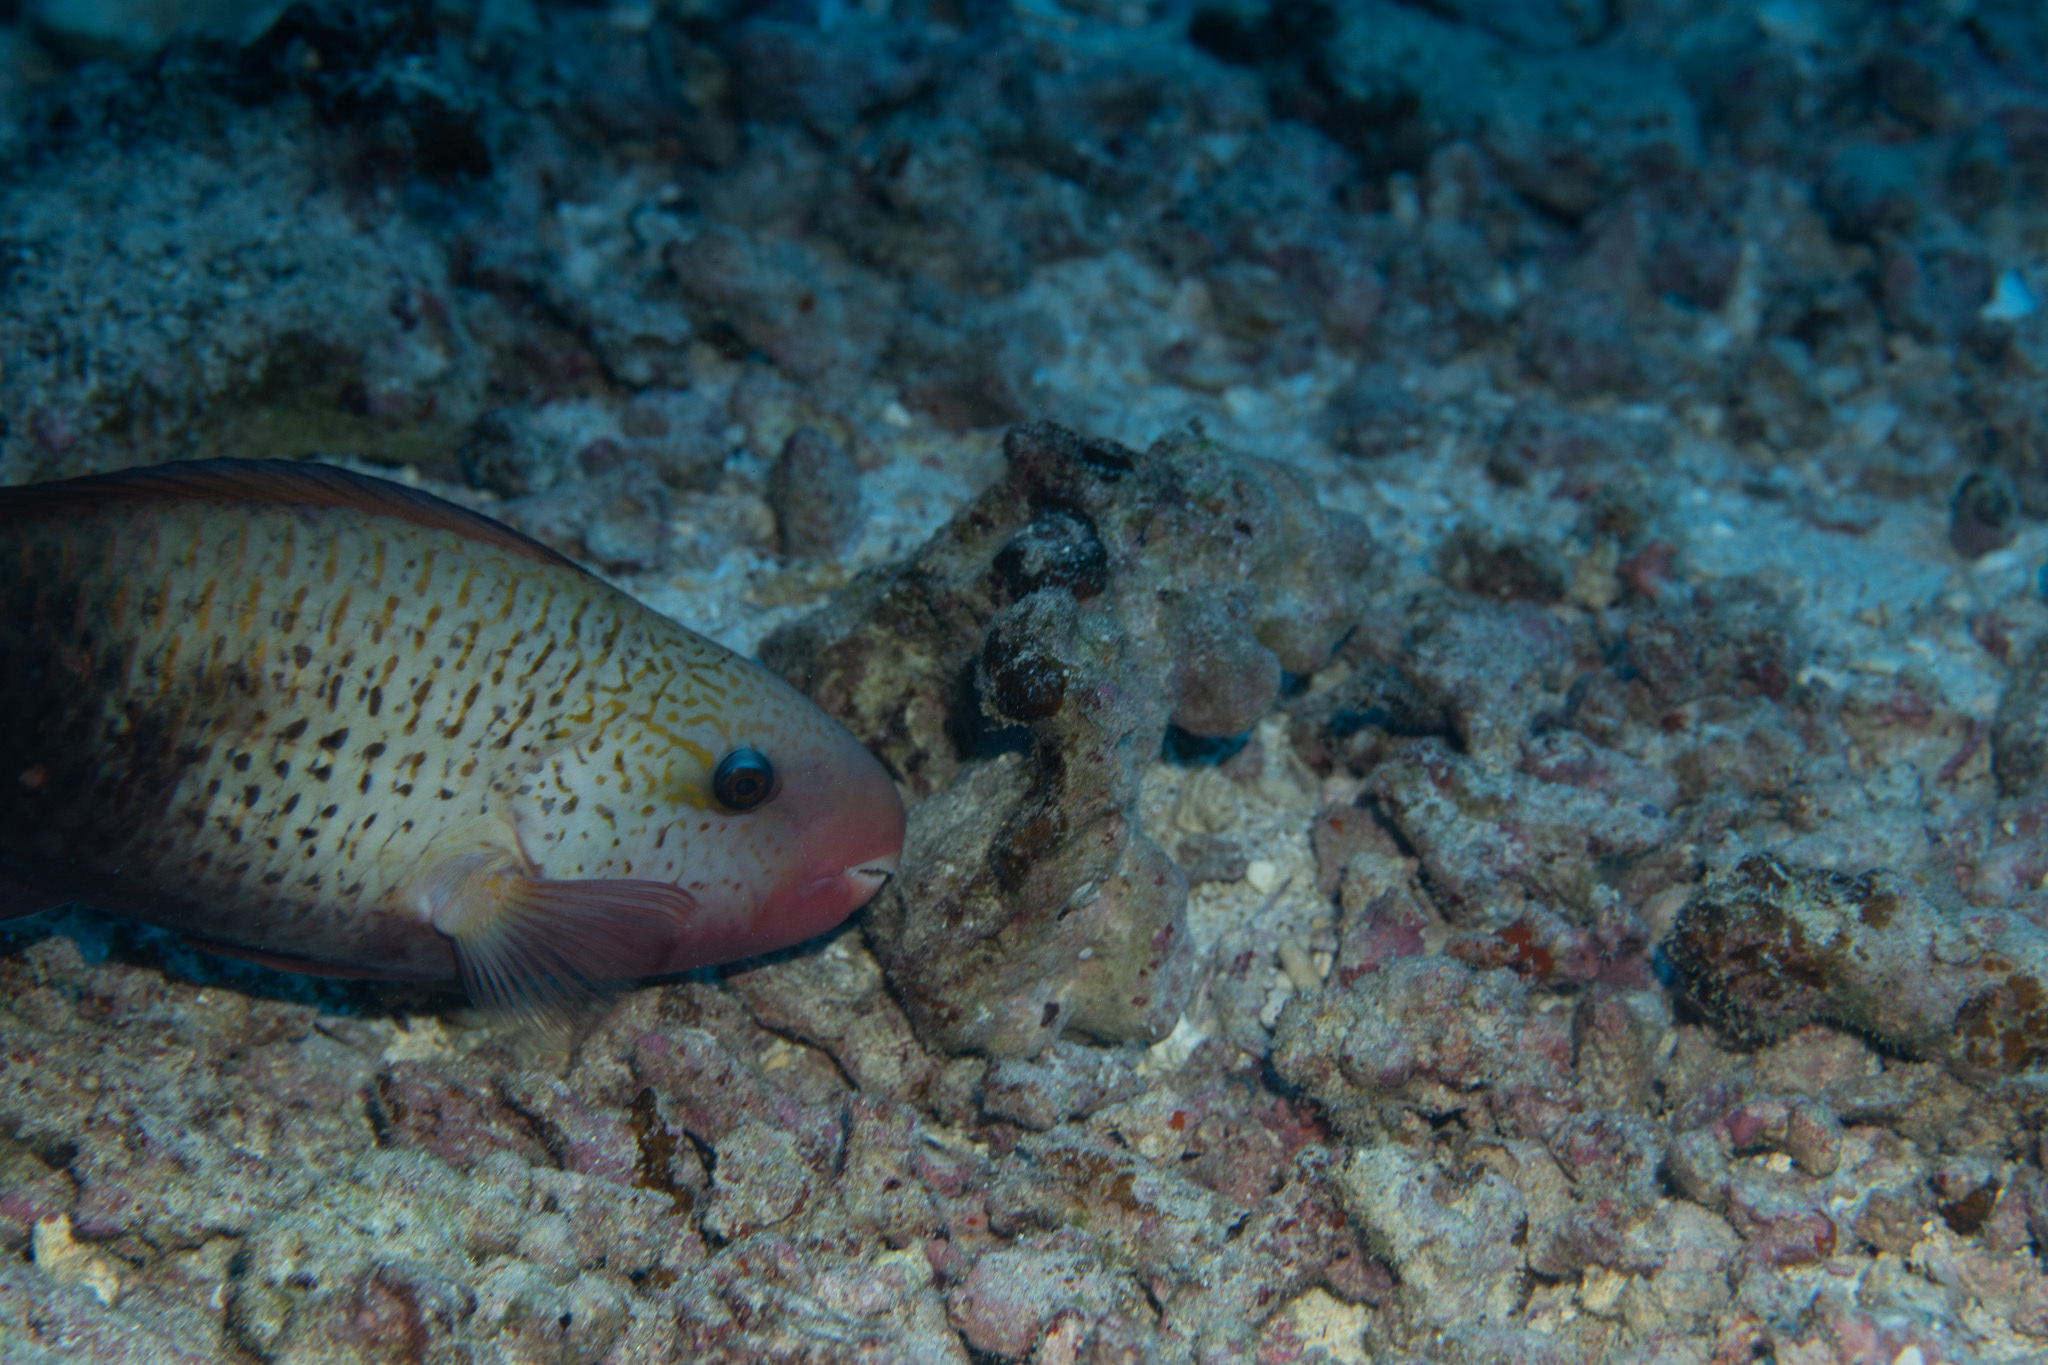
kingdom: Animalia
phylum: Chordata
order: Perciformes
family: Scaridae
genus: Chlorurus
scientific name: Chlorurus spilurus
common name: Bullethead parrotfish
